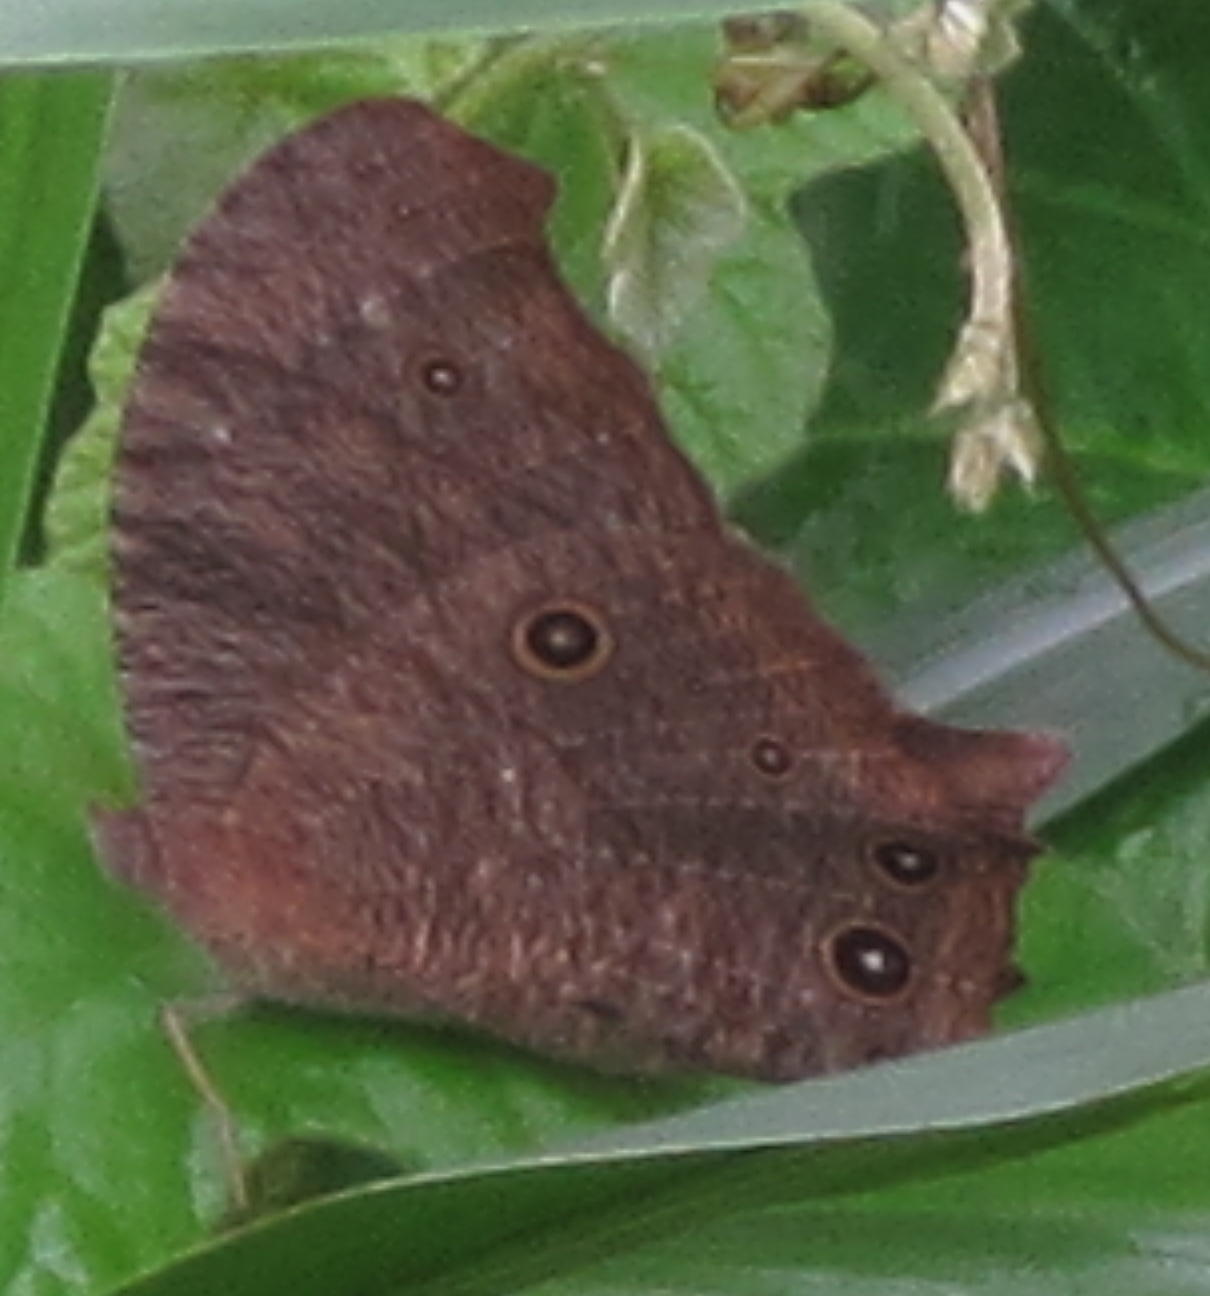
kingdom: Animalia
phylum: Arthropoda
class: Insecta
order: Lepidoptera
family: Nymphalidae
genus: Melanitis
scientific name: Melanitis leda
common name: Twilight brown
